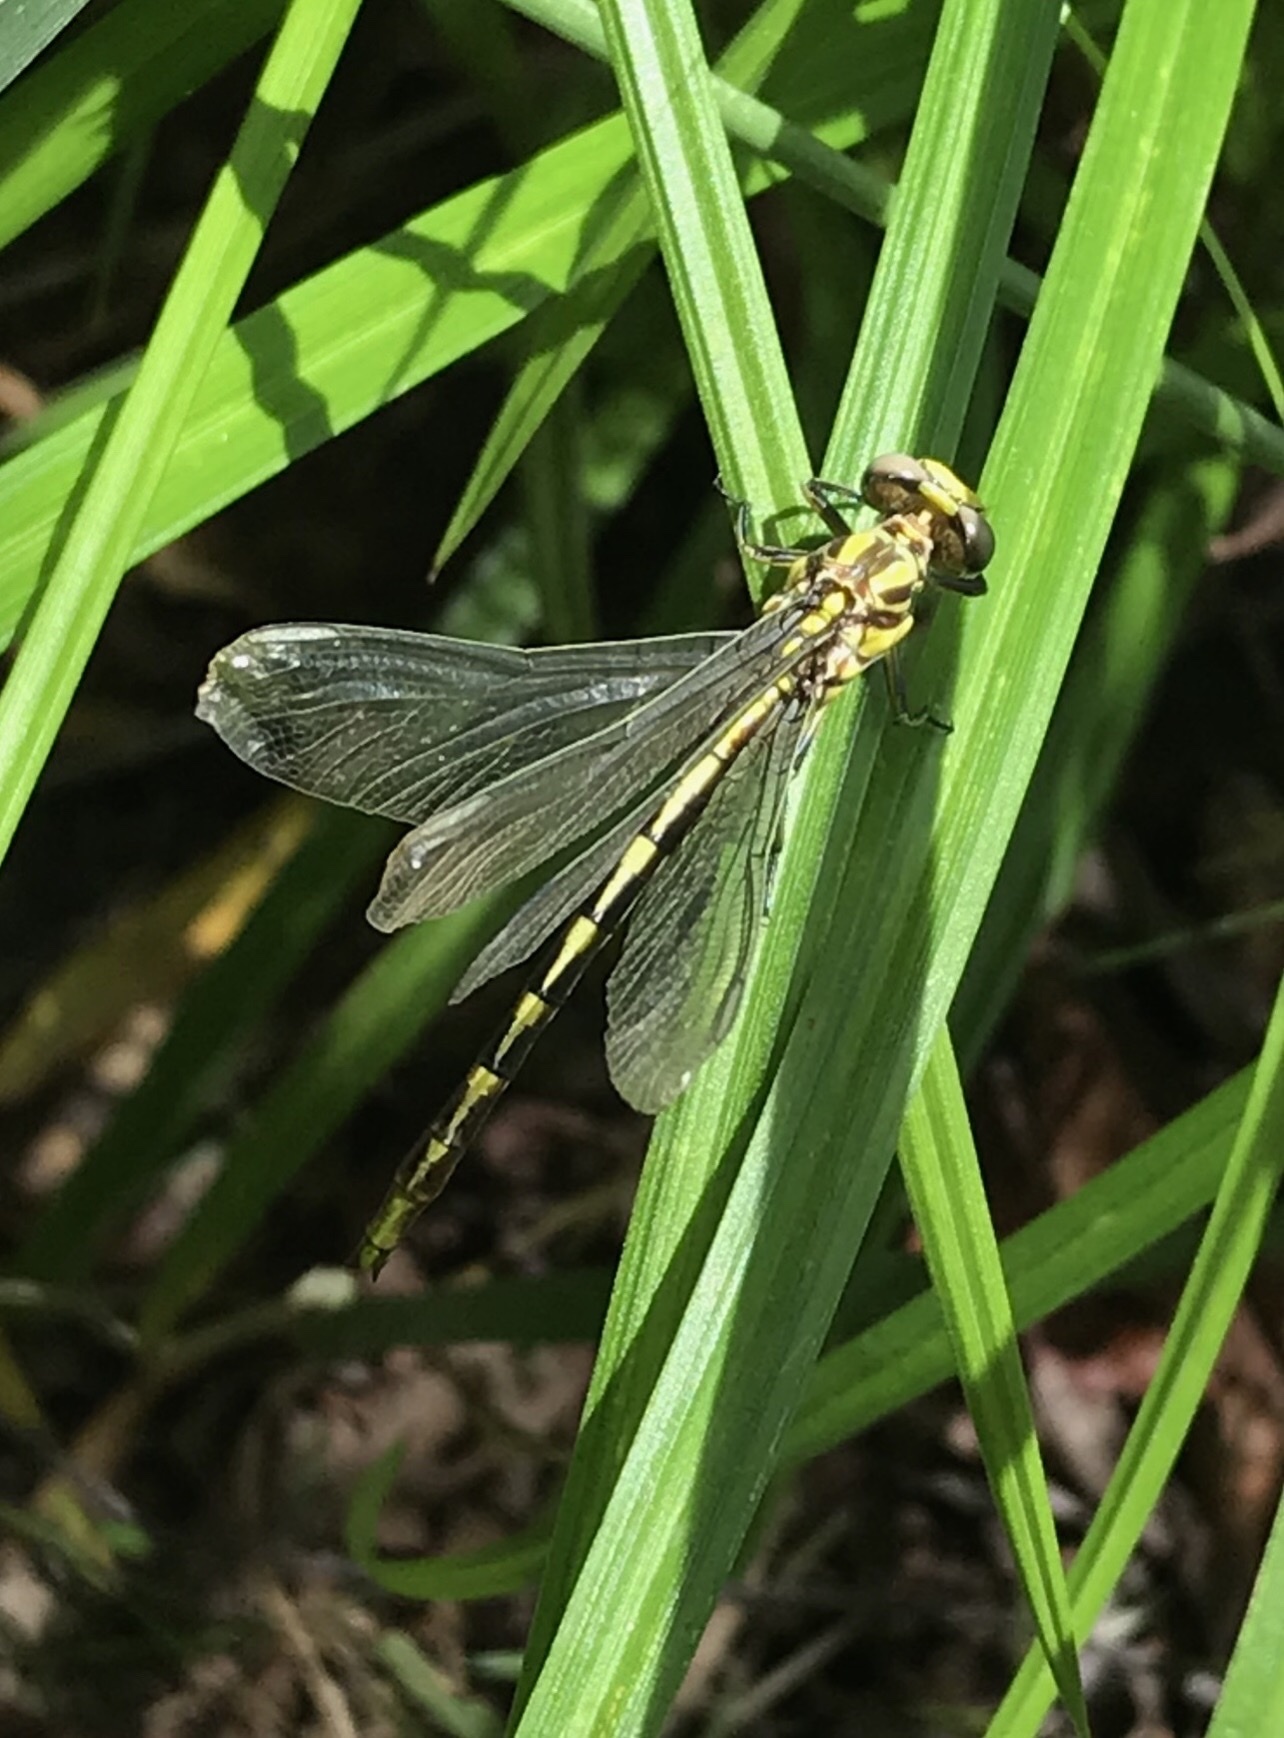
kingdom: Animalia
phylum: Arthropoda
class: Insecta
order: Odonata
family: Gomphidae
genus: Phanogomphus
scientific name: Phanogomphus militaris
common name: Sulphur-tipped clubtail
